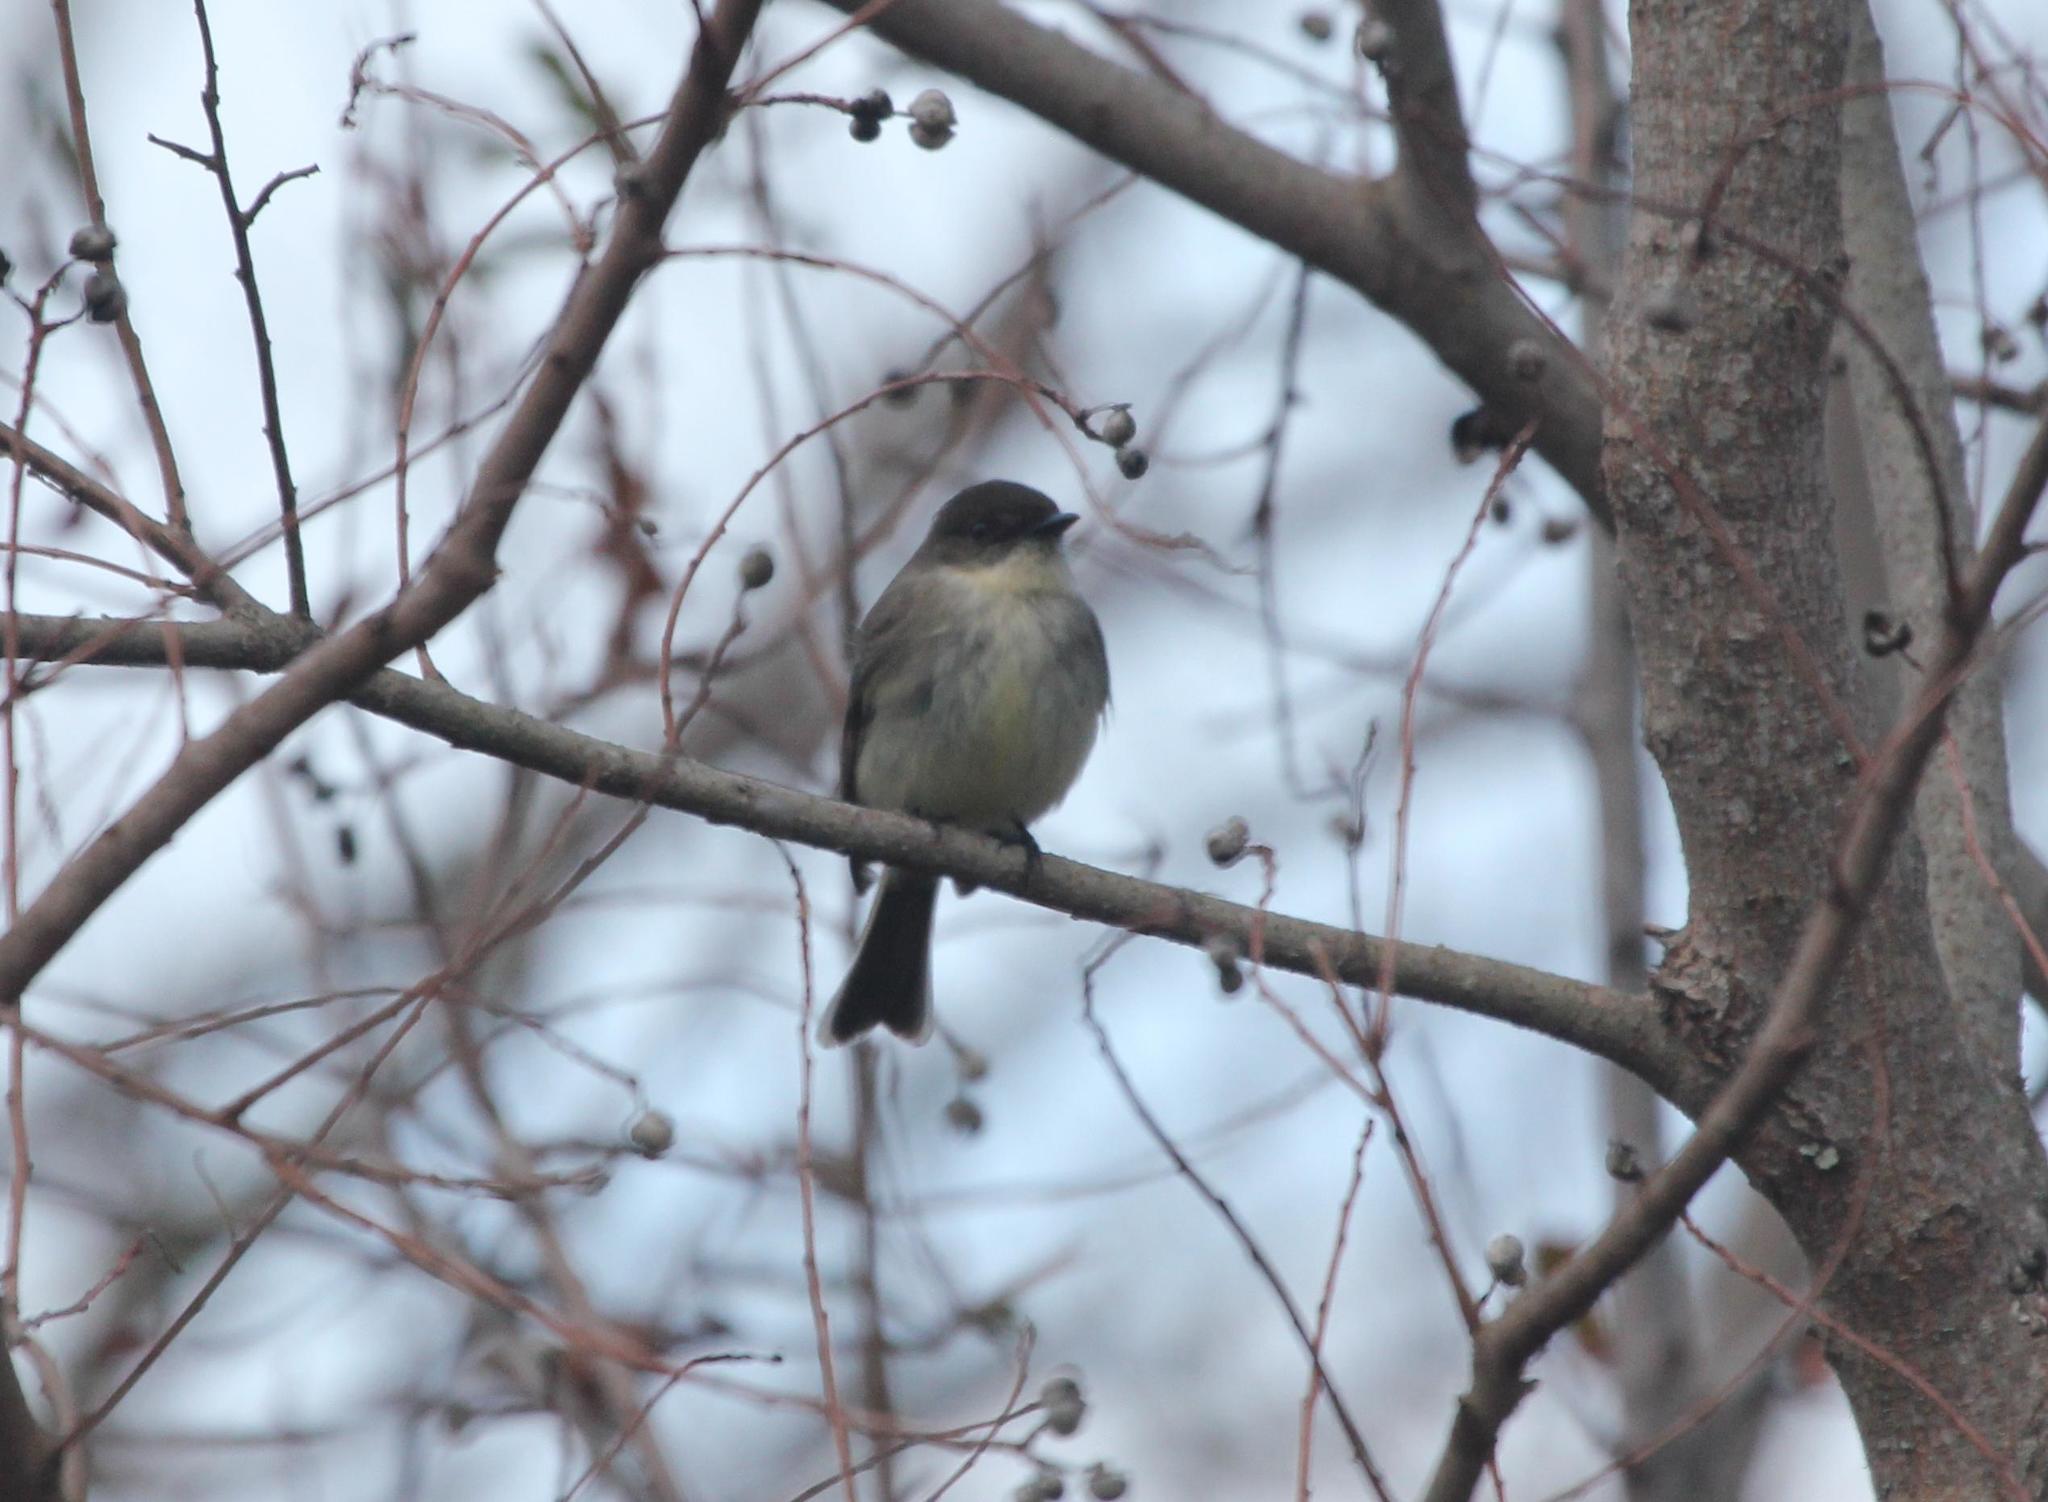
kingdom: Animalia
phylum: Chordata
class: Aves
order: Passeriformes
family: Tyrannidae
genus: Sayornis
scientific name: Sayornis phoebe
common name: Eastern phoebe
